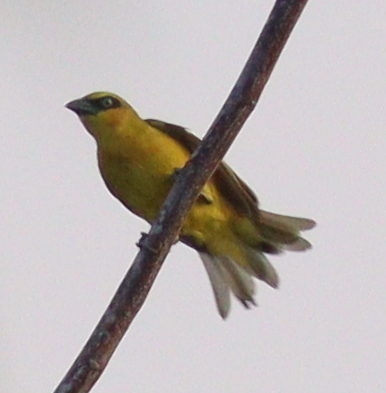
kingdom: Animalia
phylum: Chordata
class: Aves
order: Passeriformes
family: Ploceidae
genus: Ploceus
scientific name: Ploceus brachypterus
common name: Olive-naped weaver
